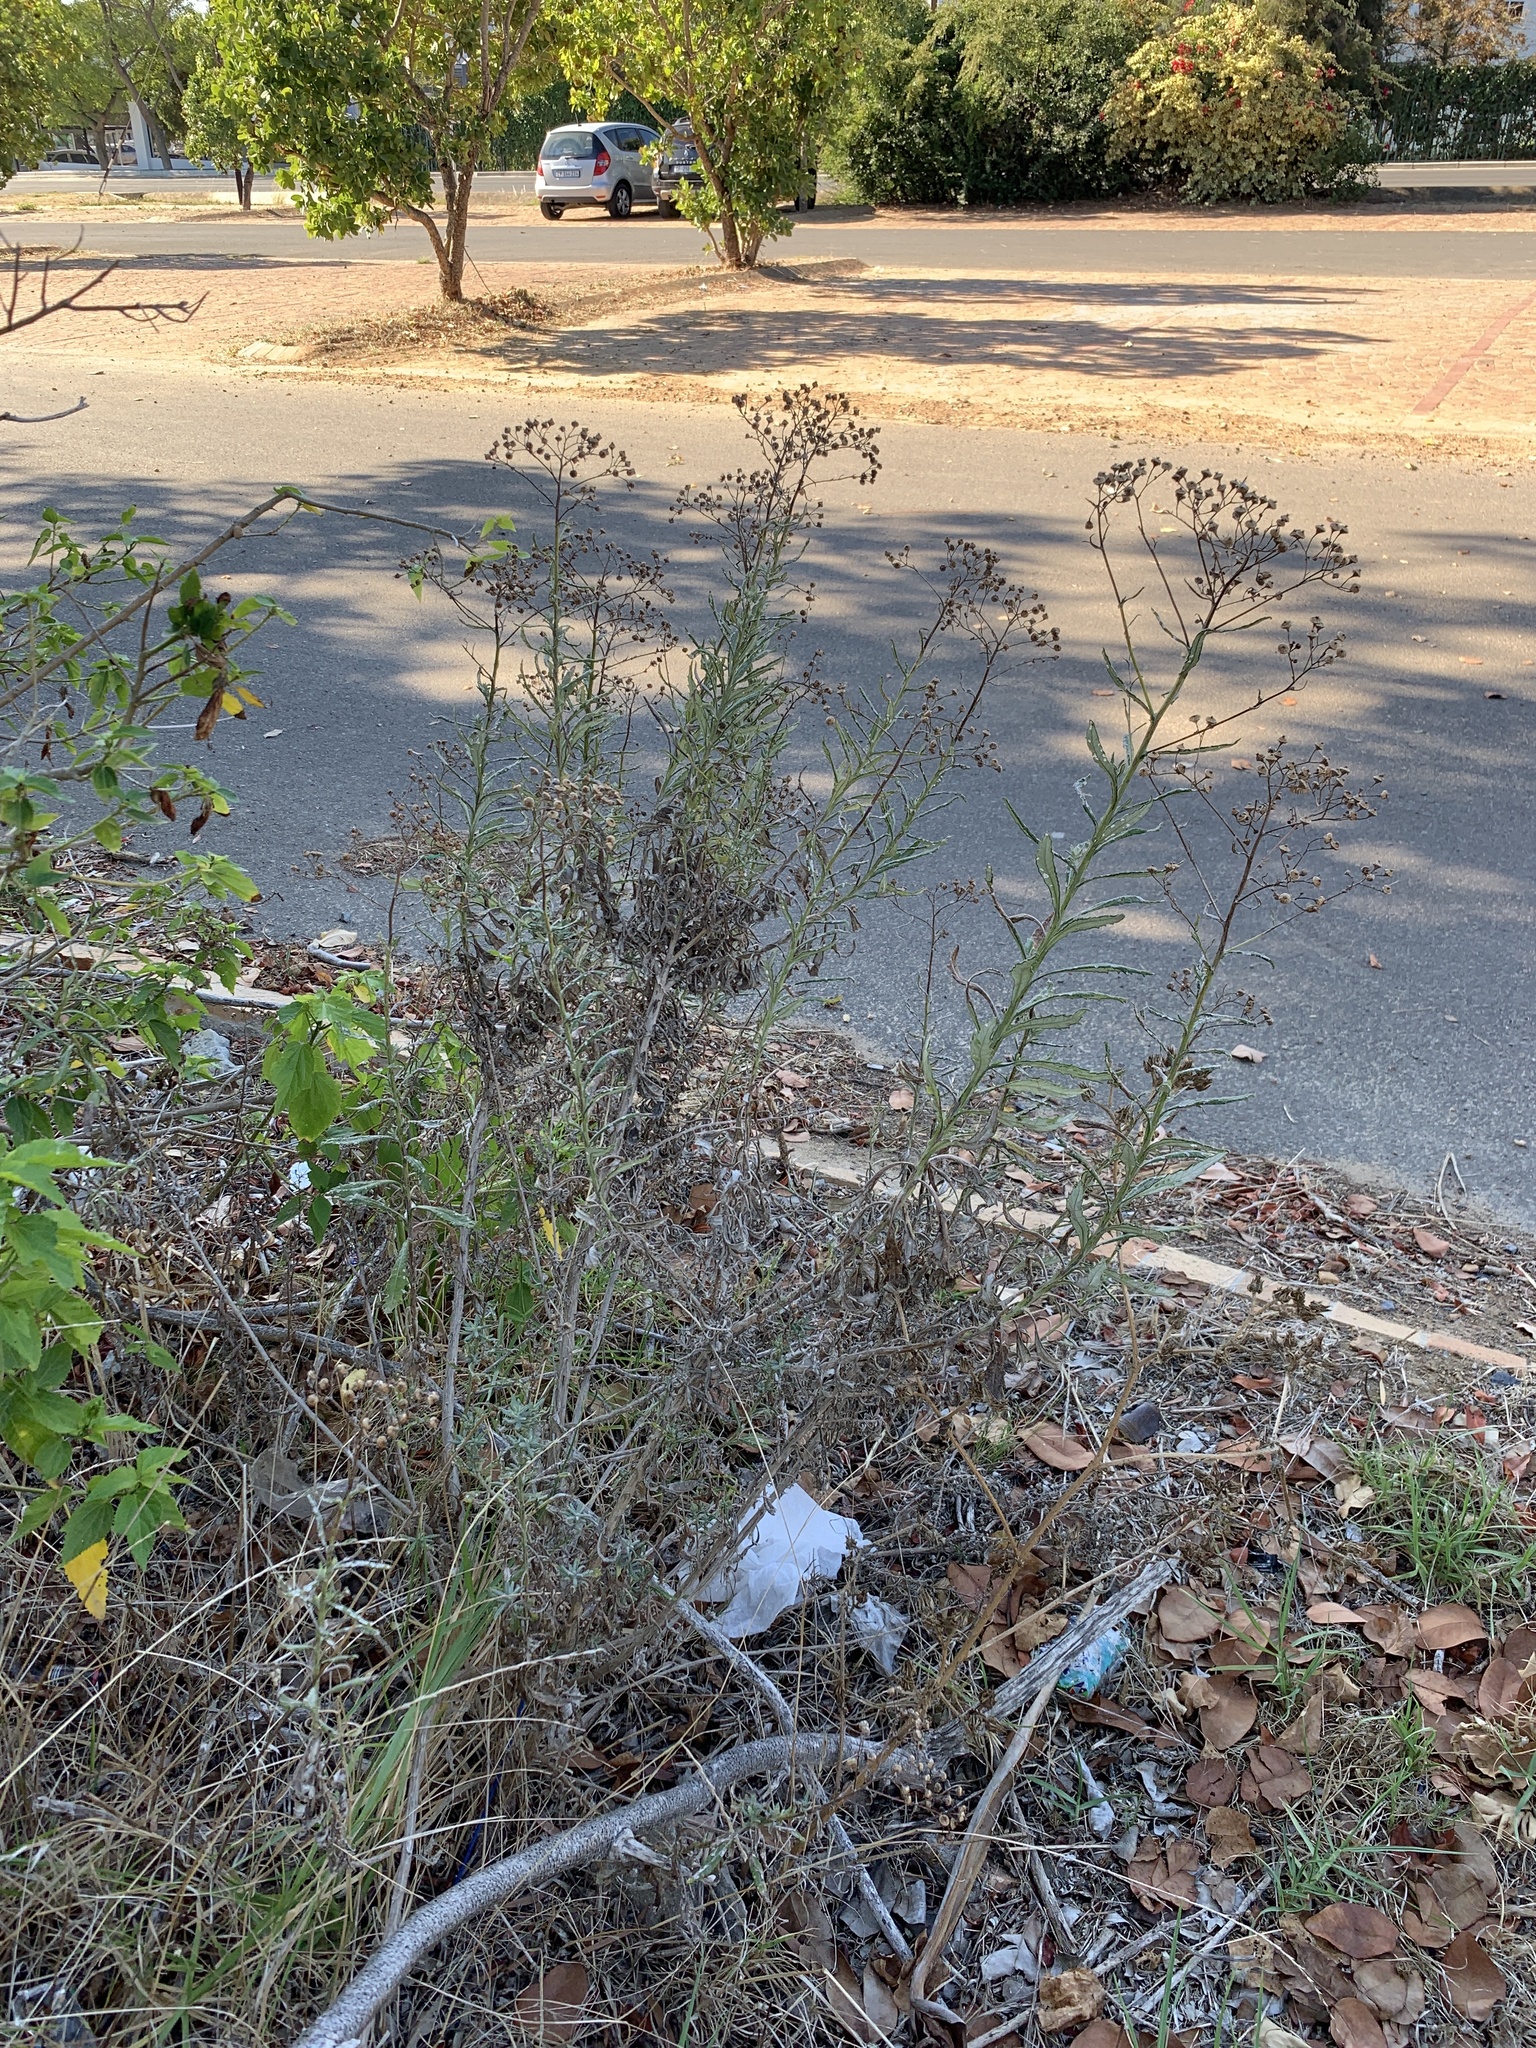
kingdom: Plantae
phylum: Tracheophyta
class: Magnoliopsida
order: Asterales
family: Asteraceae
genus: Senecio
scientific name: Senecio pterophorus
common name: Shoddy ragwort
